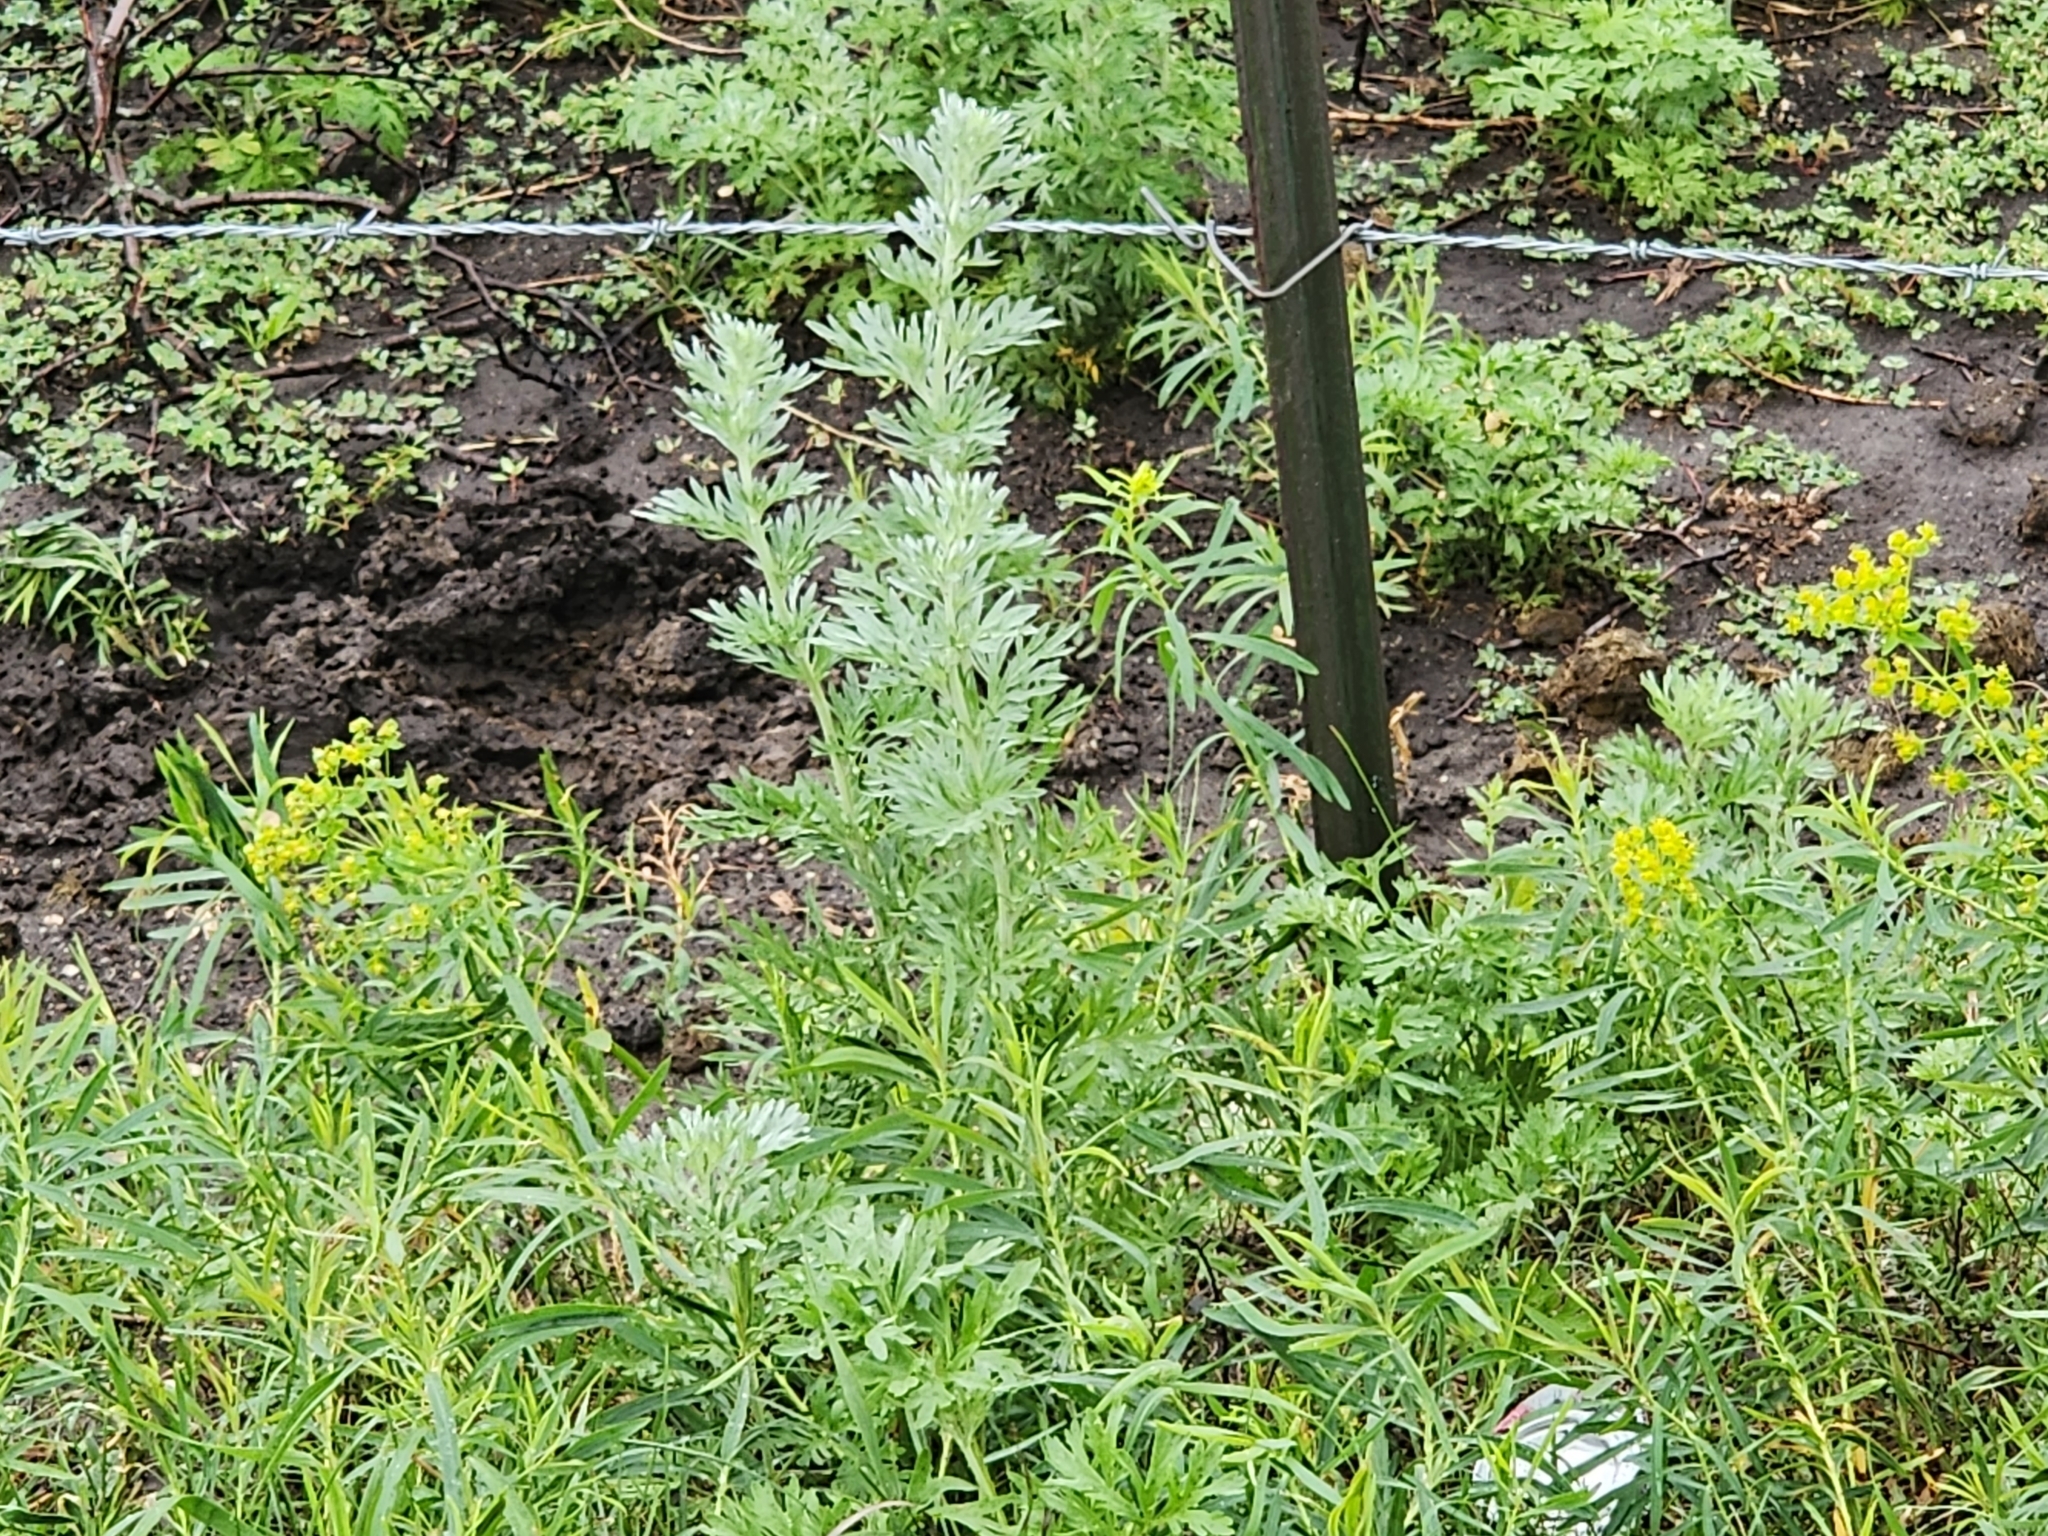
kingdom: Plantae
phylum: Tracheophyta
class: Magnoliopsida
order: Asterales
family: Asteraceae
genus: Artemisia
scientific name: Artemisia absinthium
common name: Wormwood
